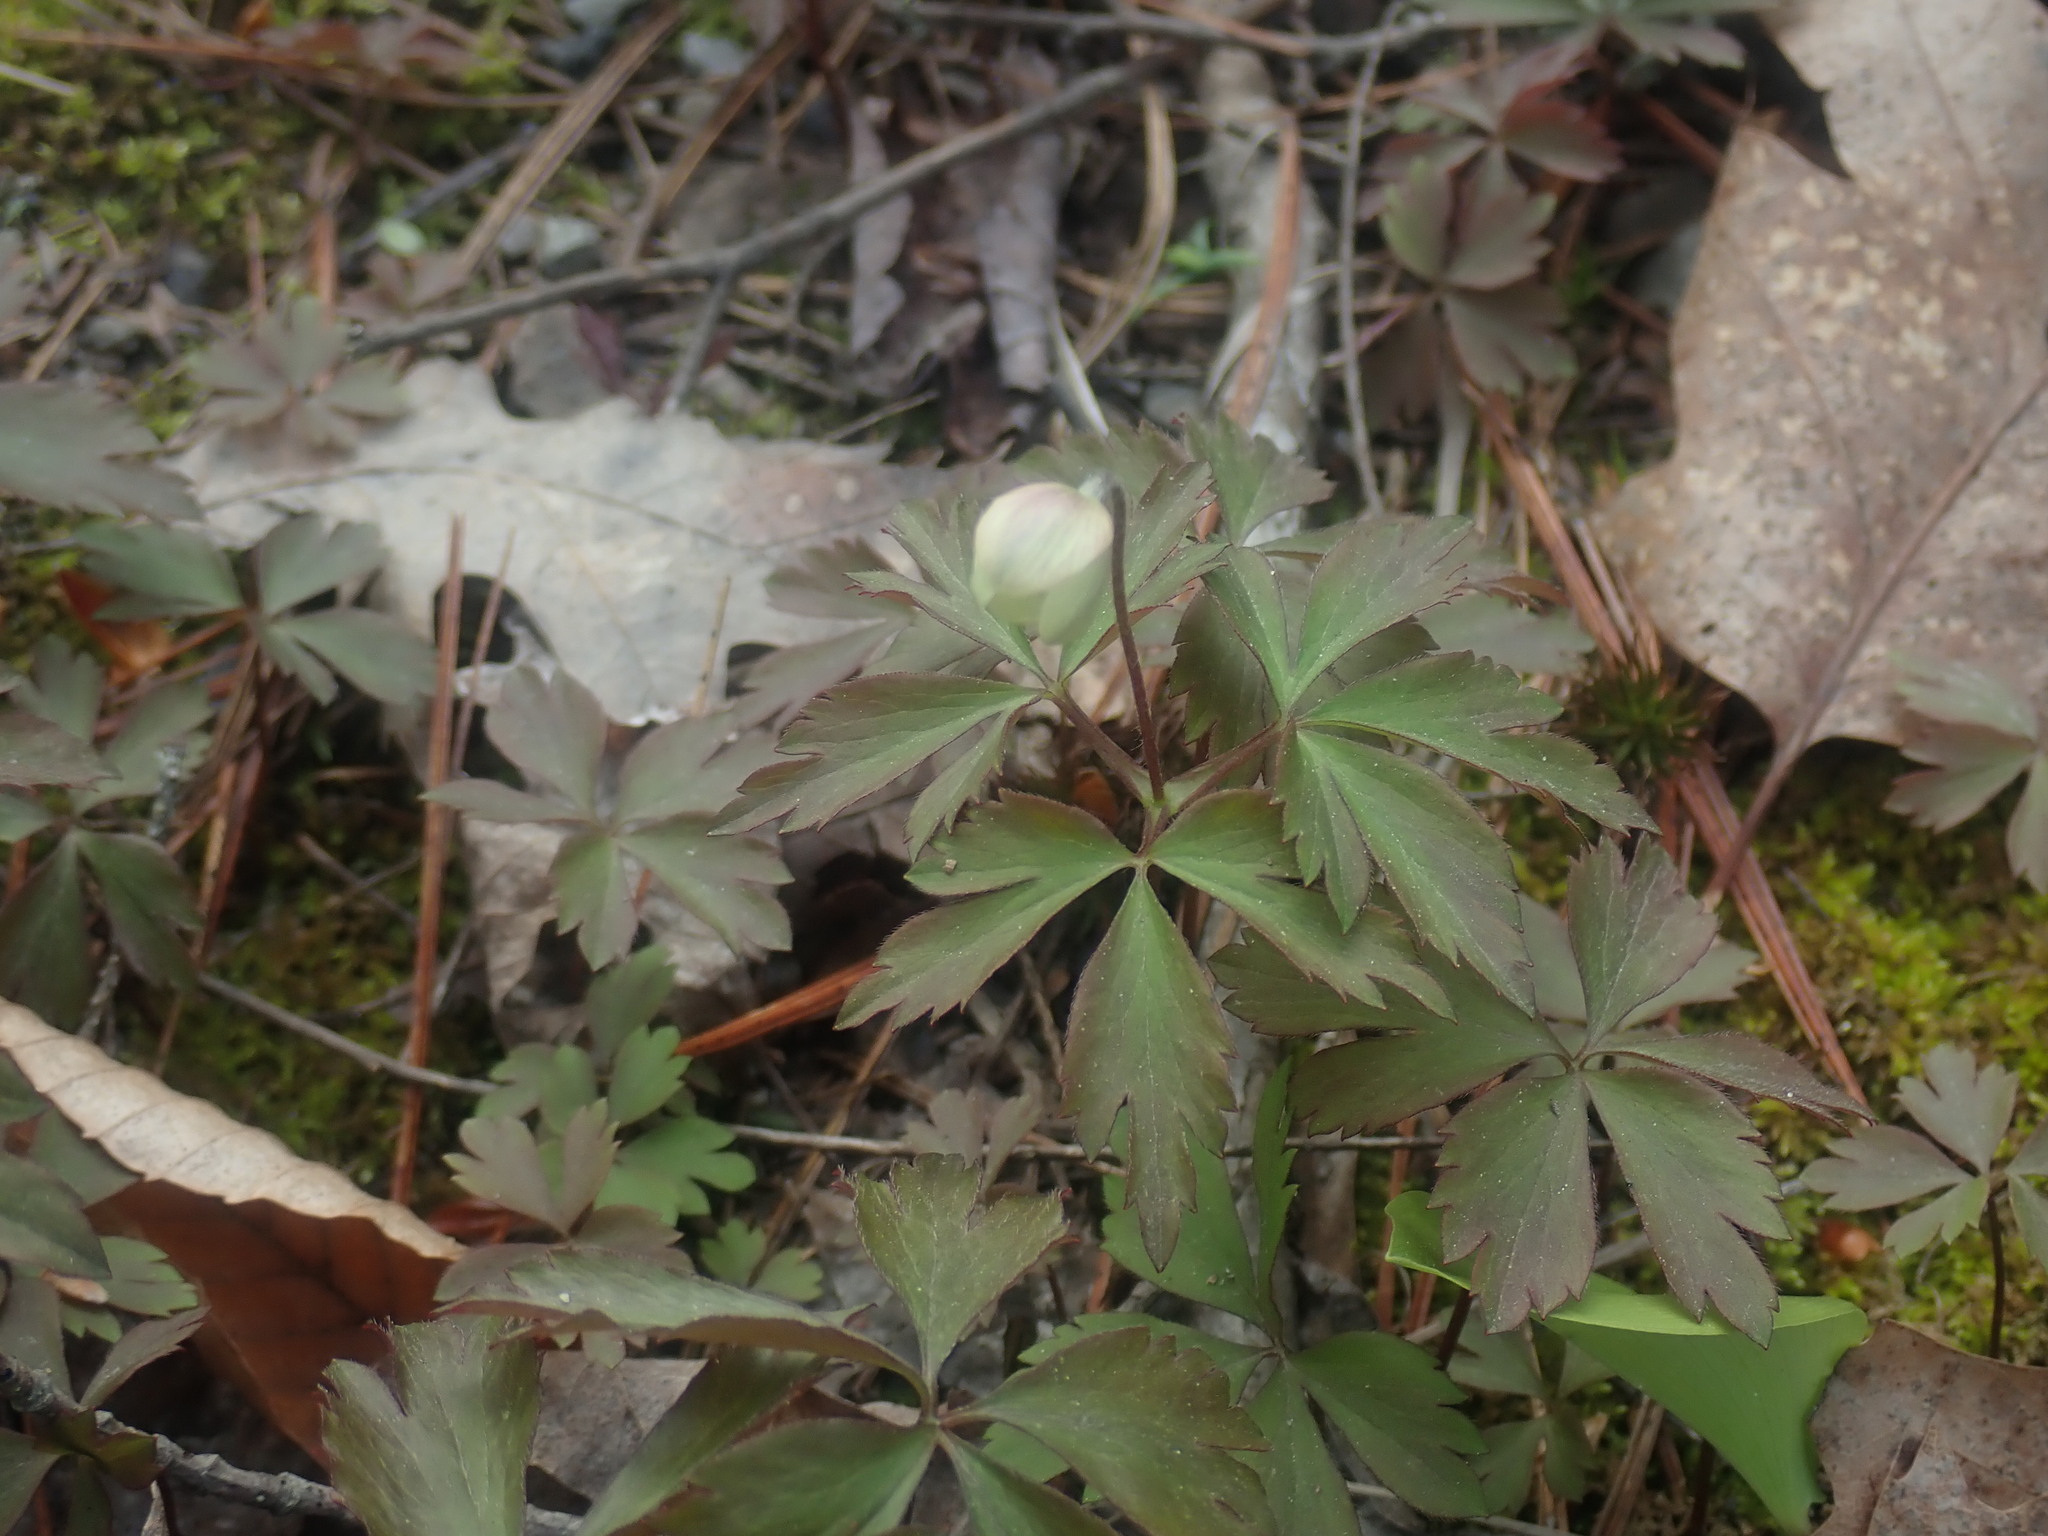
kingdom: Plantae
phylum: Tracheophyta
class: Magnoliopsida
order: Ranunculales
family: Ranunculaceae
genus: Anemone
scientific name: Anemone quinquefolia
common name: Wood anemone
